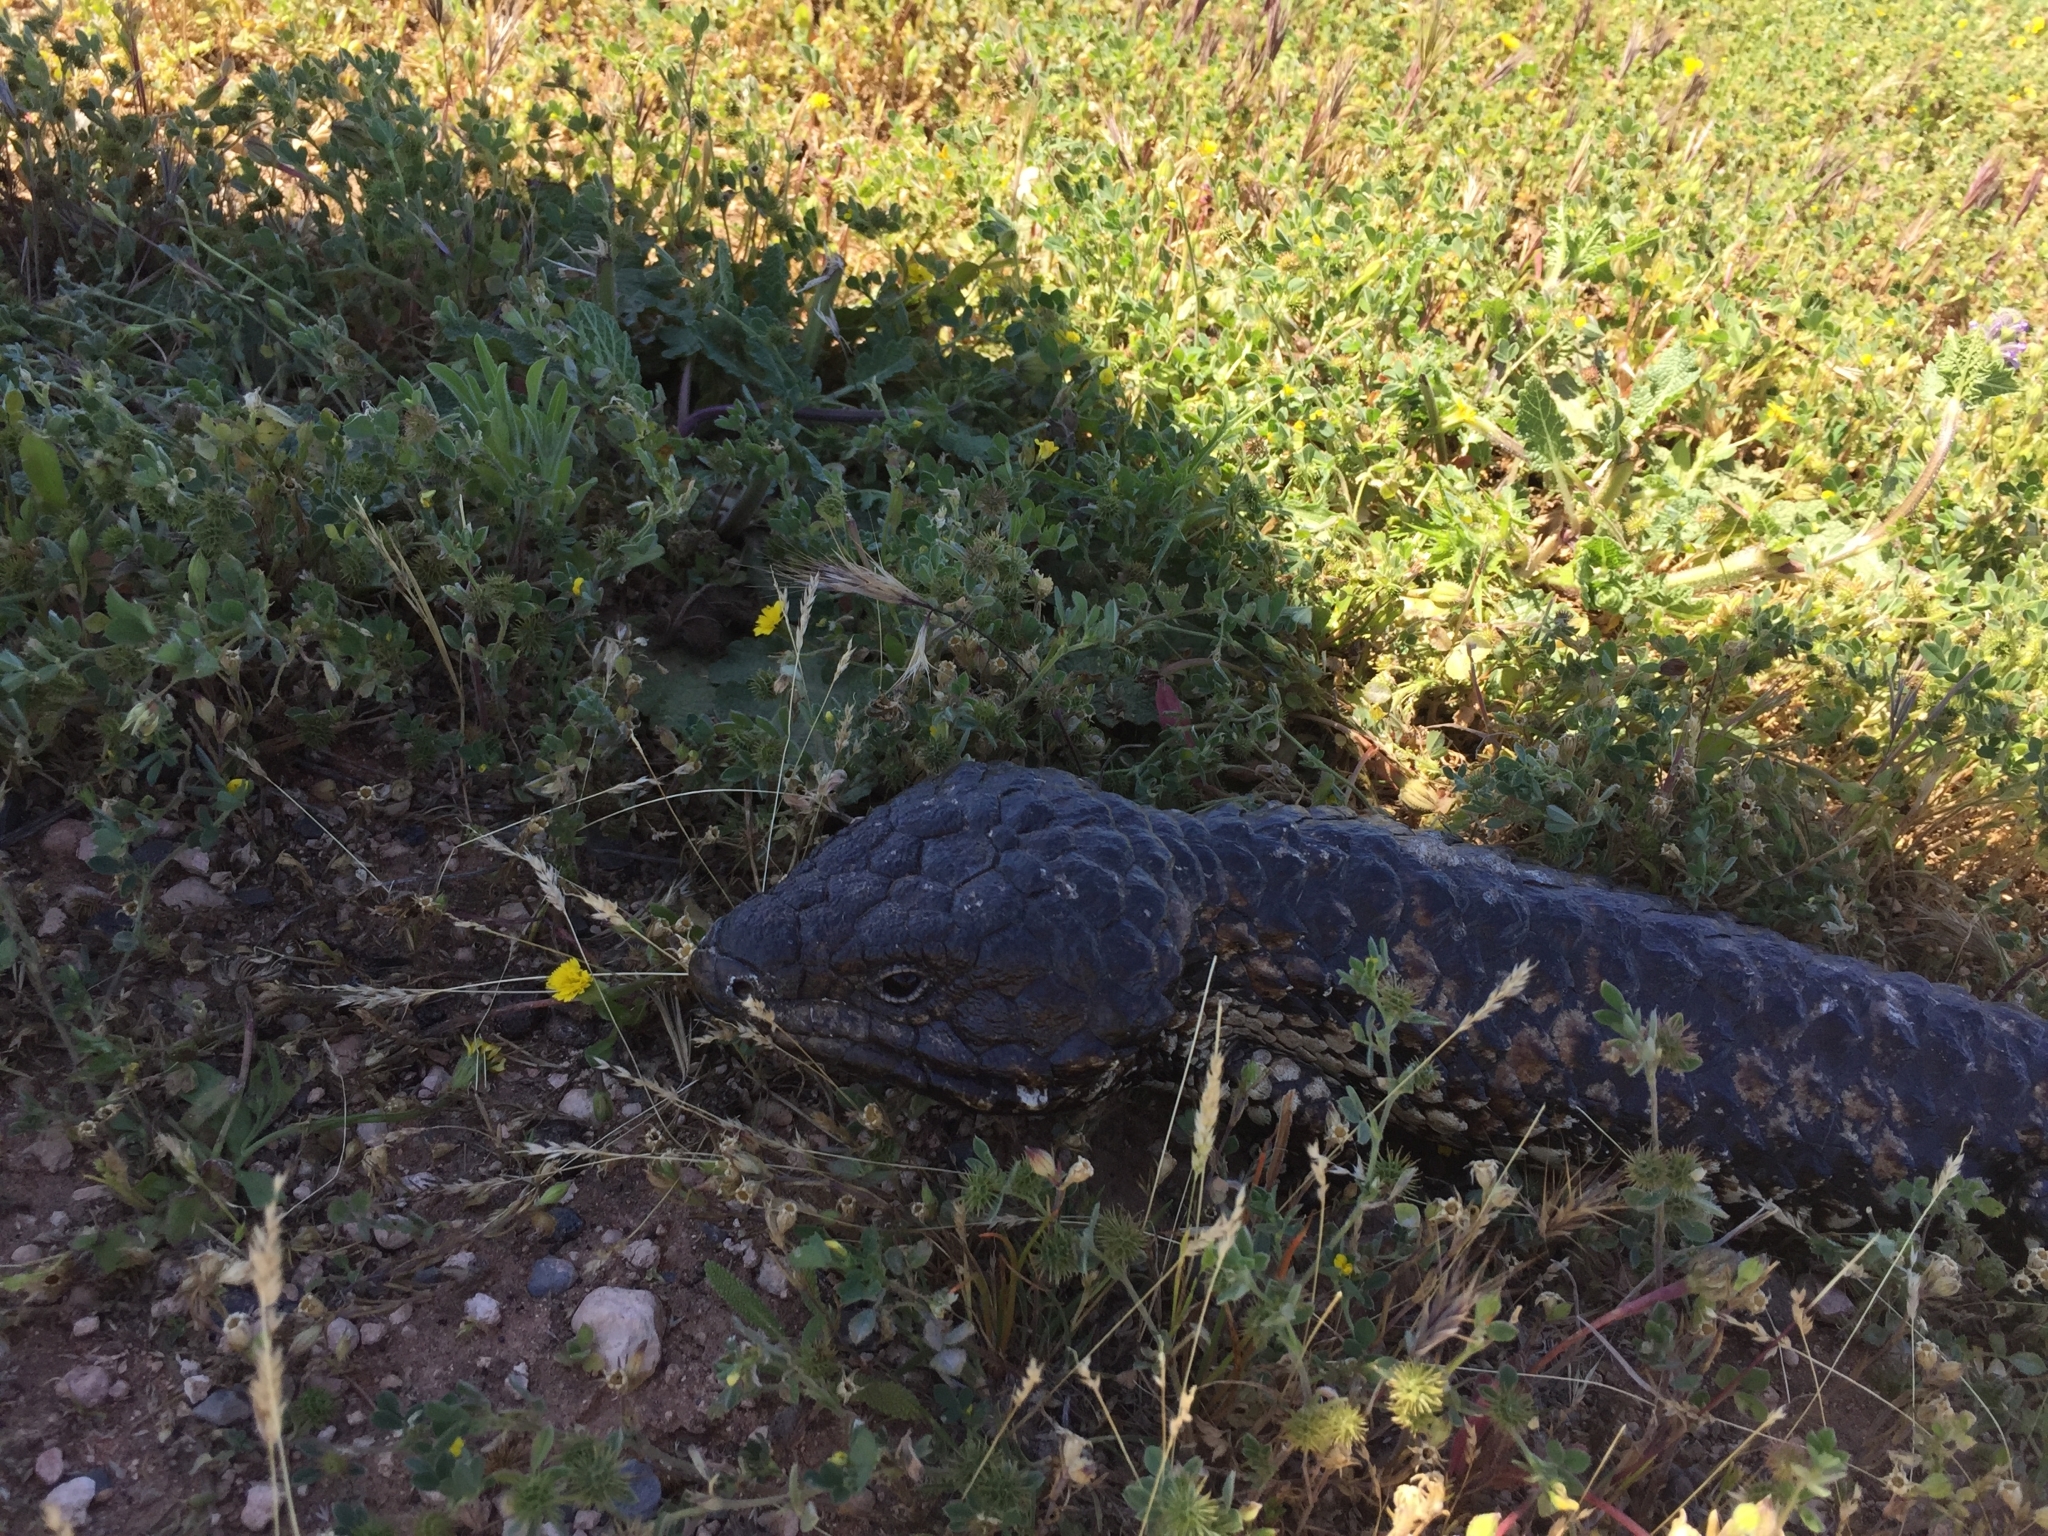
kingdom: Animalia
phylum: Chordata
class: Squamata
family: Scincidae
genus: Tiliqua
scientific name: Tiliqua rugosa
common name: Pinecone lizard
